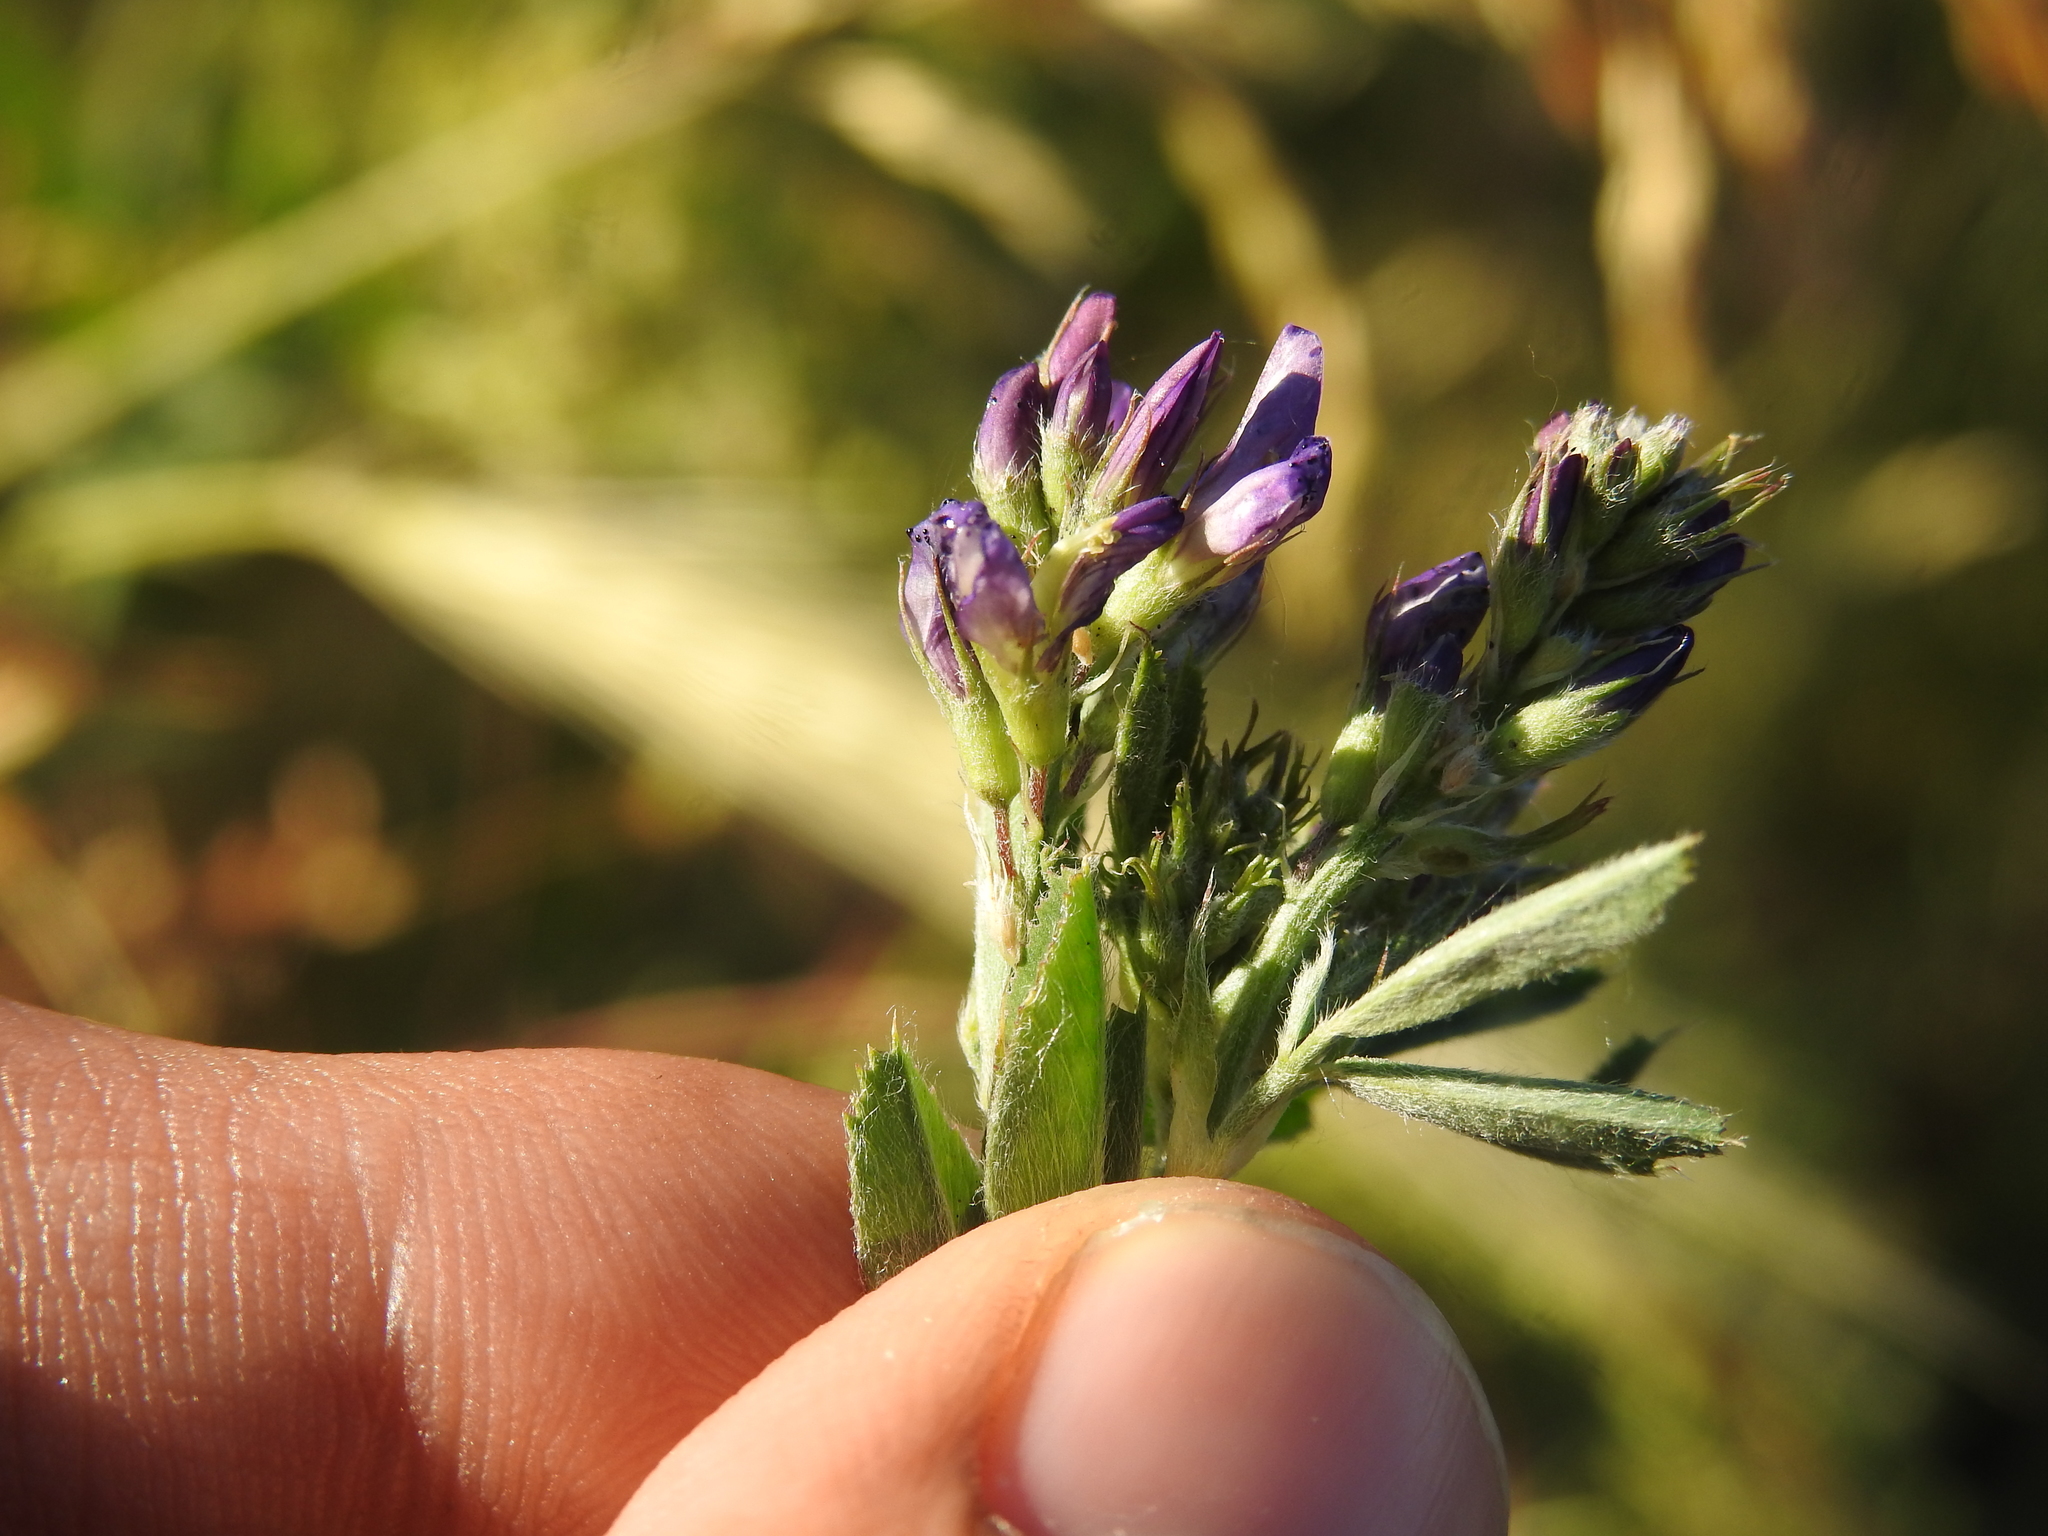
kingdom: Plantae
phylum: Tracheophyta
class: Magnoliopsida
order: Fabales
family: Fabaceae
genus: Medicago
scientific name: Medicago sativa
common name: Alfalfa
